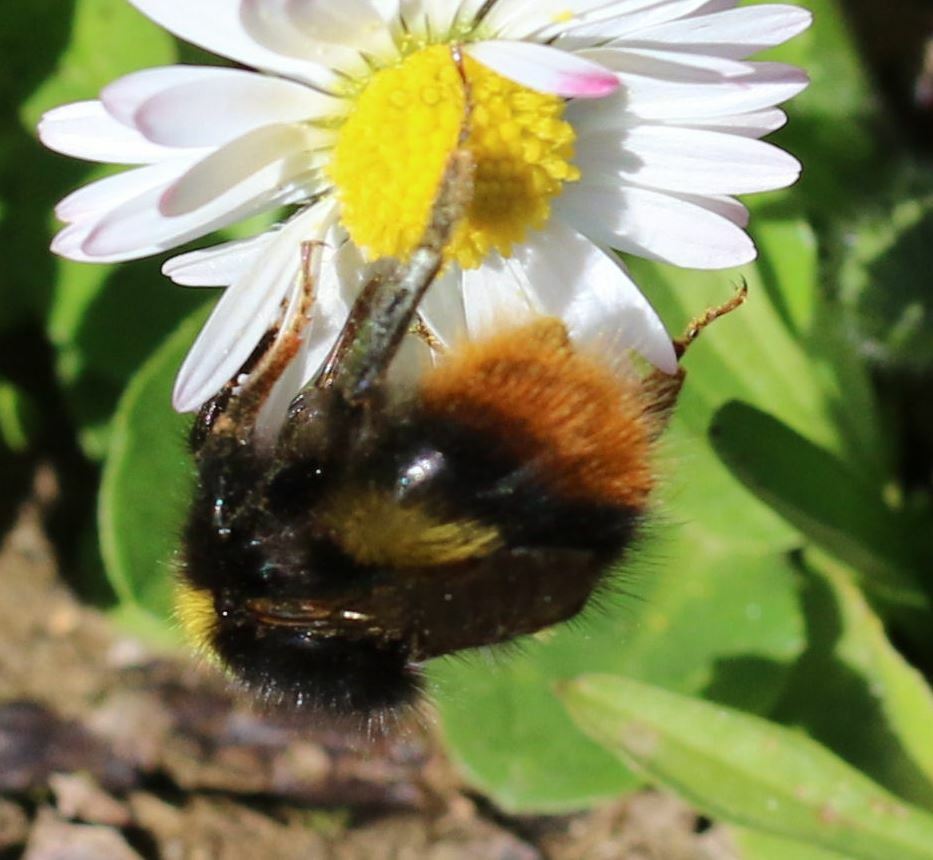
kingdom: Animalia
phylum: Arthropoda
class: Insecta
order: Hymenoptera
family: Apidae
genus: Bombus
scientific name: Bombus pratorum
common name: Early humble-bee
